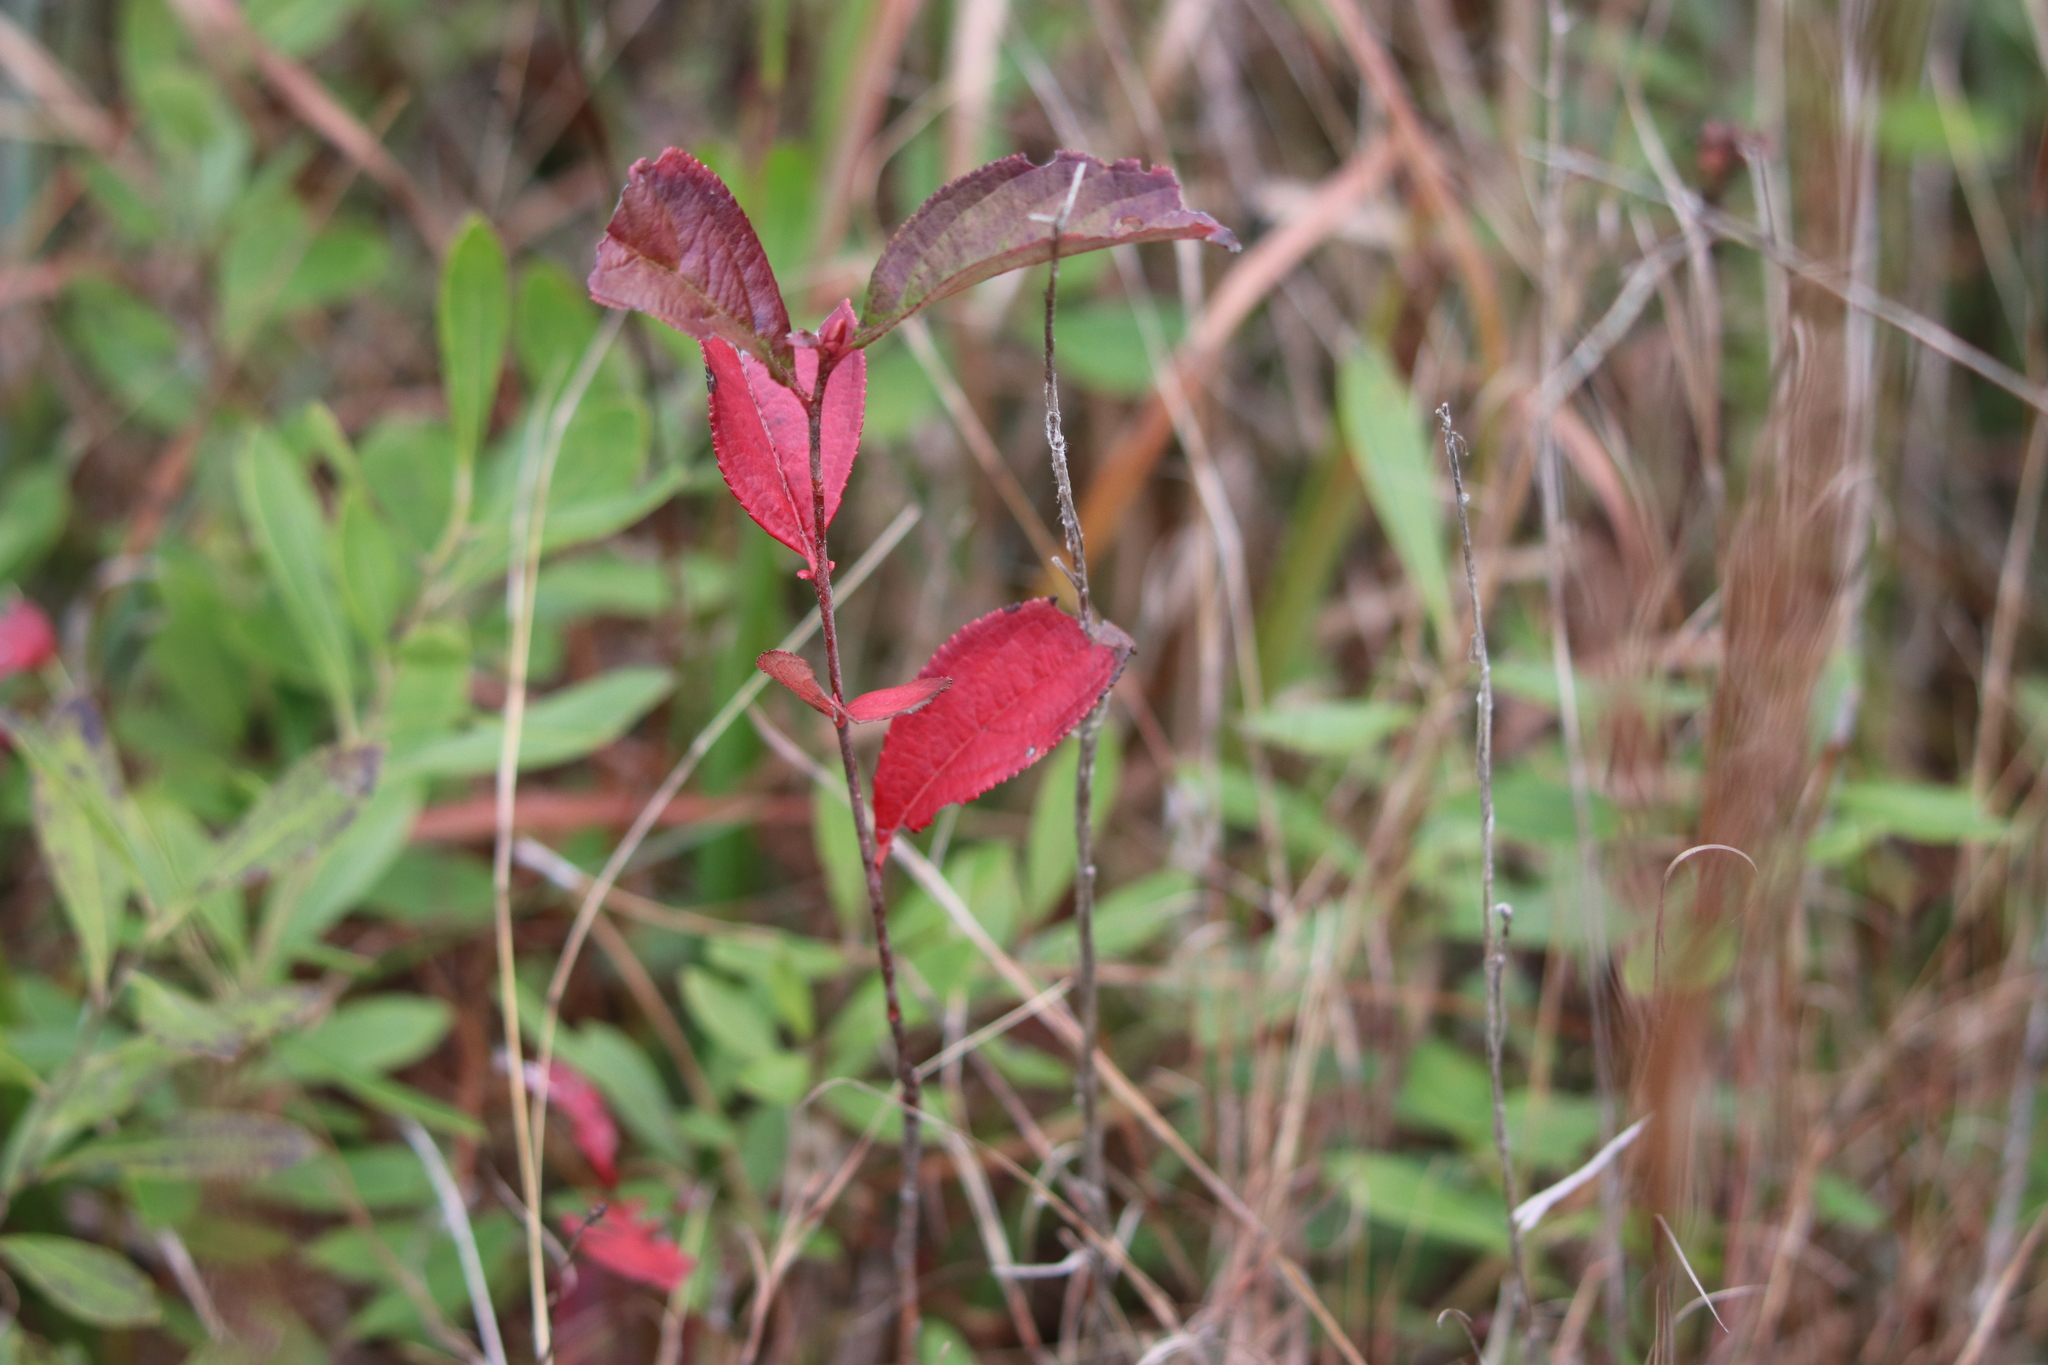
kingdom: Plantae
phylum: Tracheophyta
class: Magnoliopsida
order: Rosales
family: Rosaceae
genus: Aronia
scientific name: Aronia arbutifolia
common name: Red chokeberry
